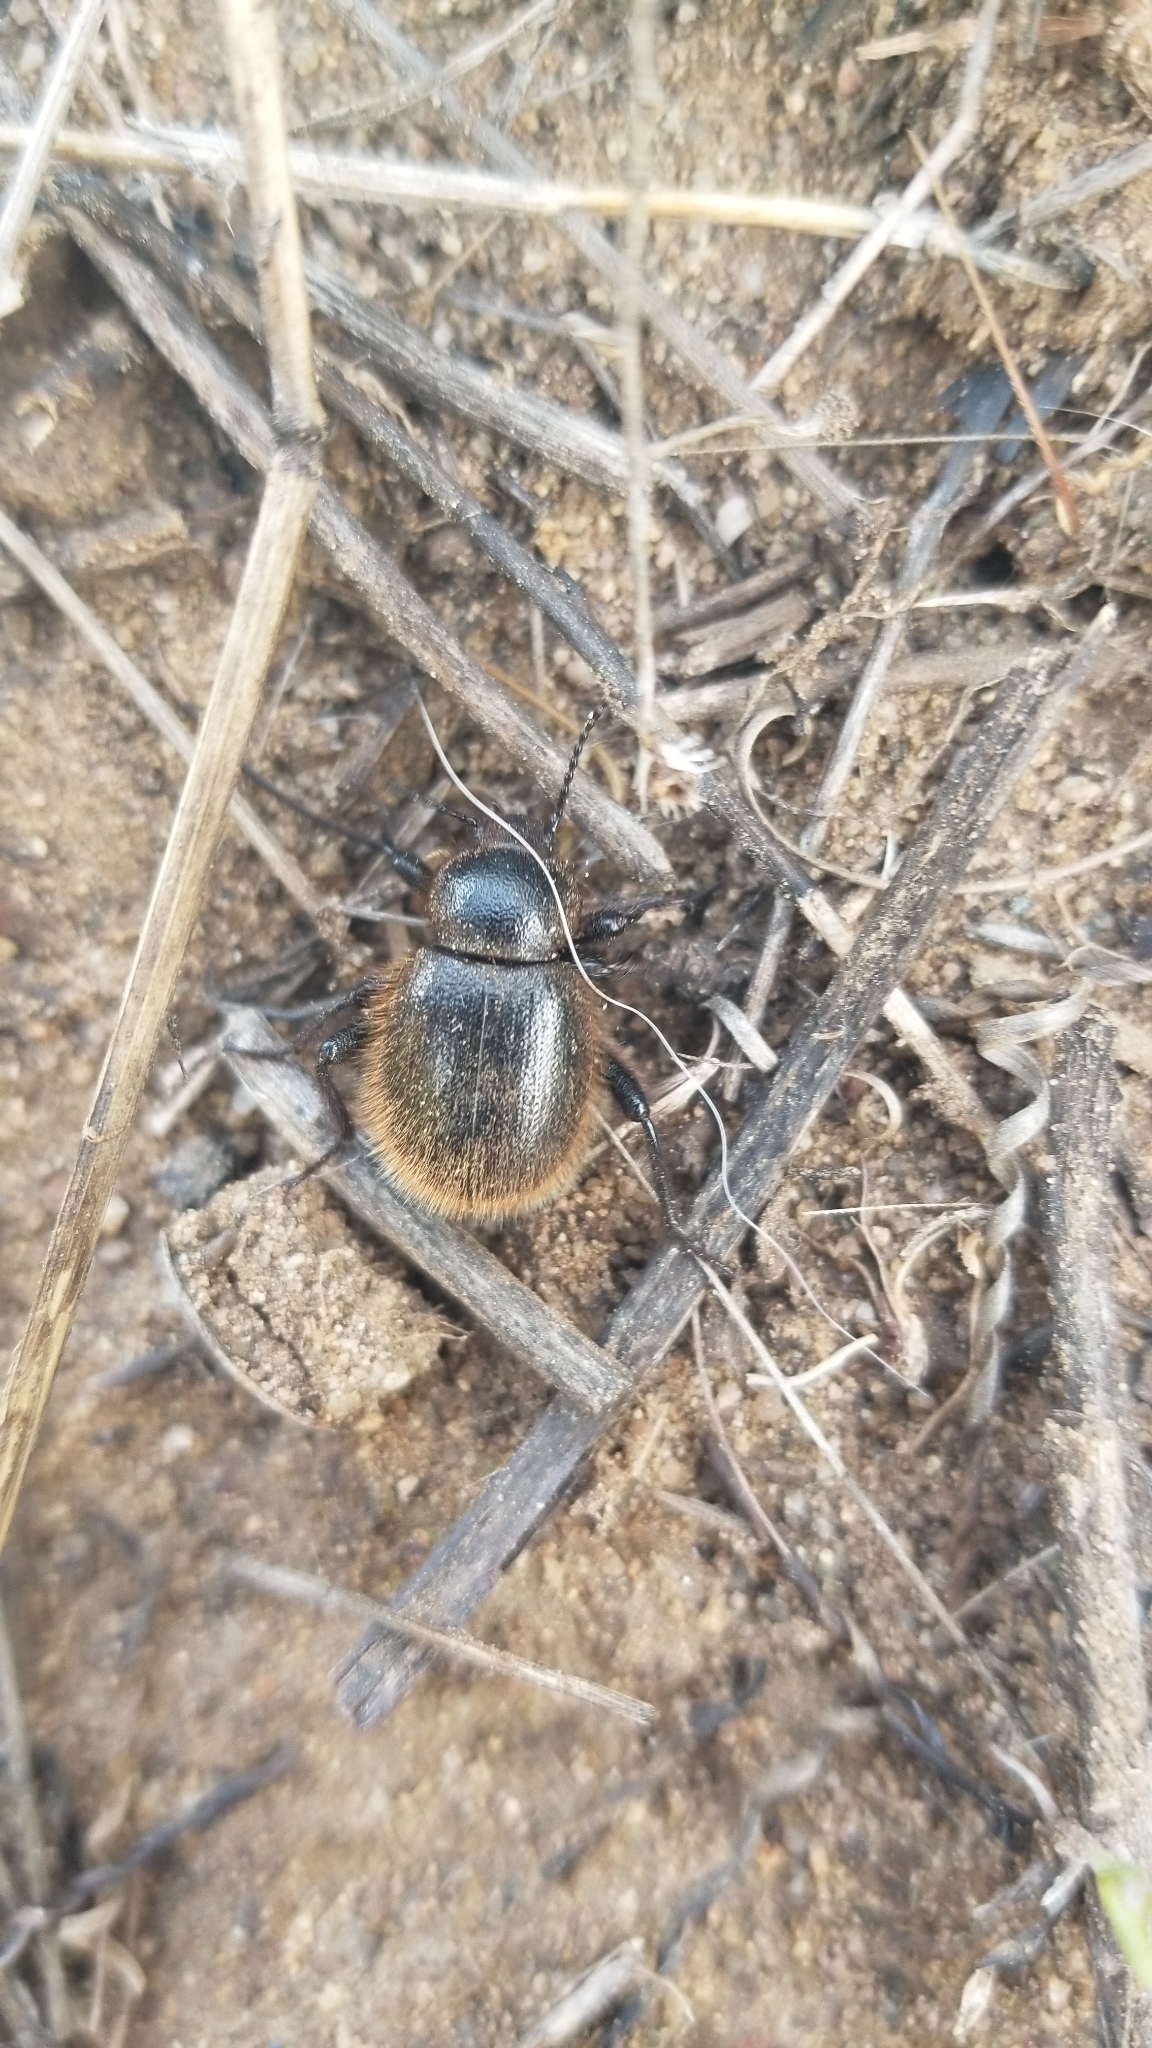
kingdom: Animalia
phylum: Arthropoda
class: Insecta
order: Coleoptera
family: Tenebrionidae
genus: Eleodes
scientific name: Eleodes osculans
